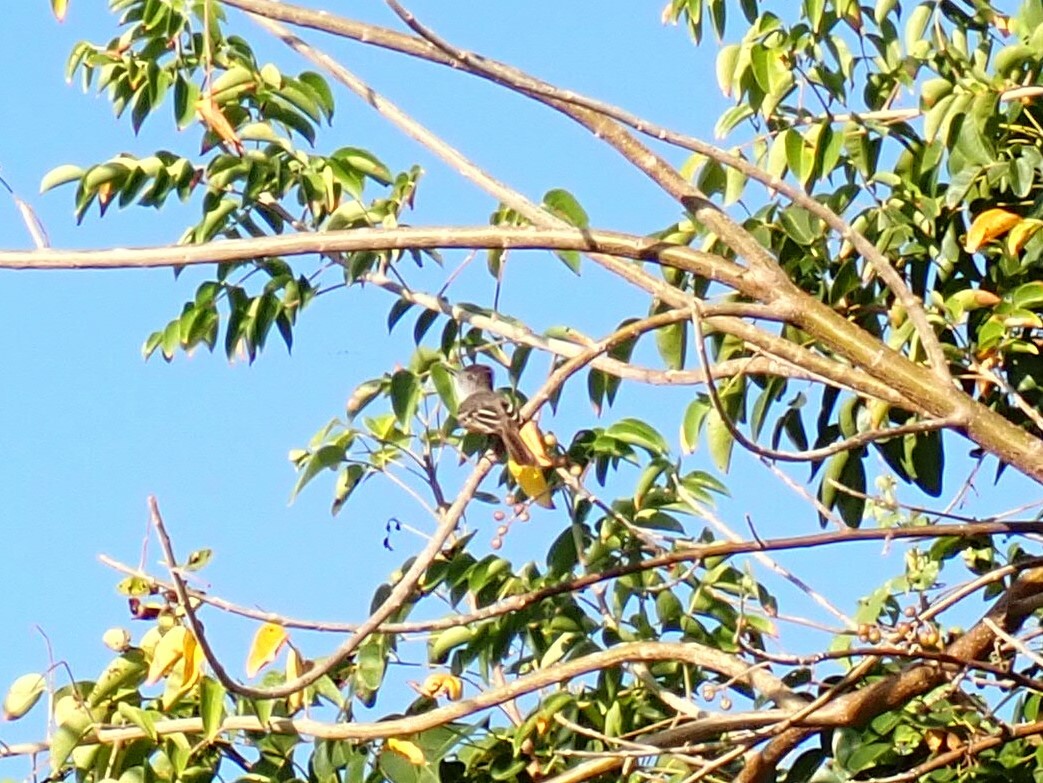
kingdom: Animalia
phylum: Chordata
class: Aves
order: Passeriformes
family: Tyrannidae
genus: Myiarchus
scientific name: Myiarchus stolidus
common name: Stolid flycatcher
